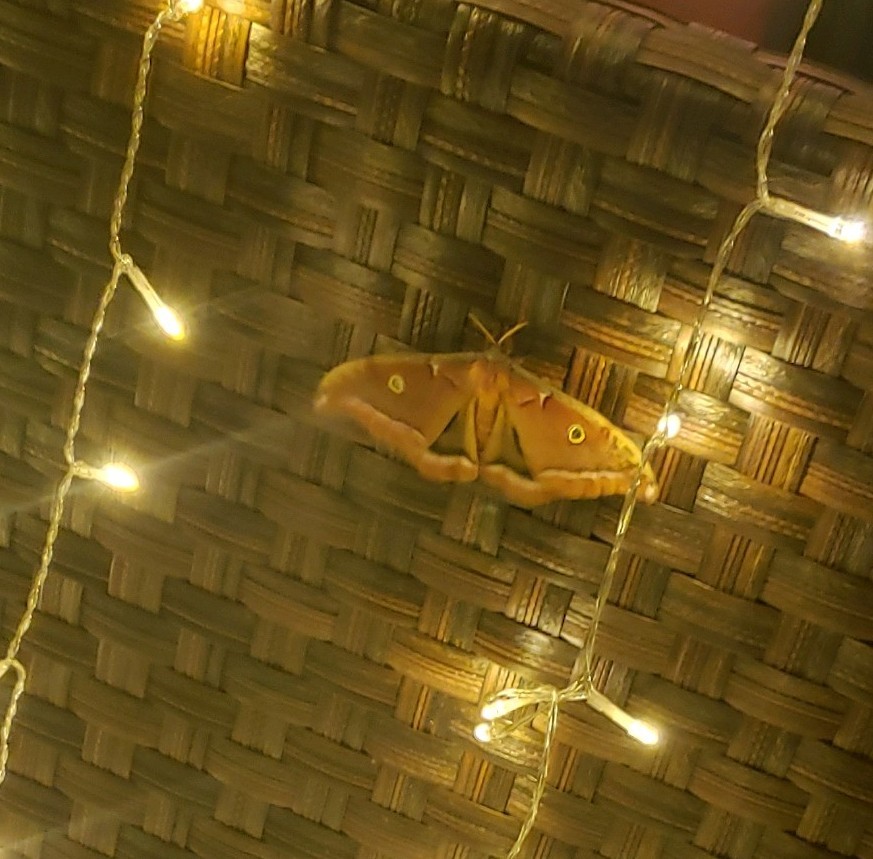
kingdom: Animalia
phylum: Arthropoda
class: Insecta
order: Lepidoptera
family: Saturniidae
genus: Antheraea
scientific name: Antheraea polyphemus
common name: Polyphemus moth
